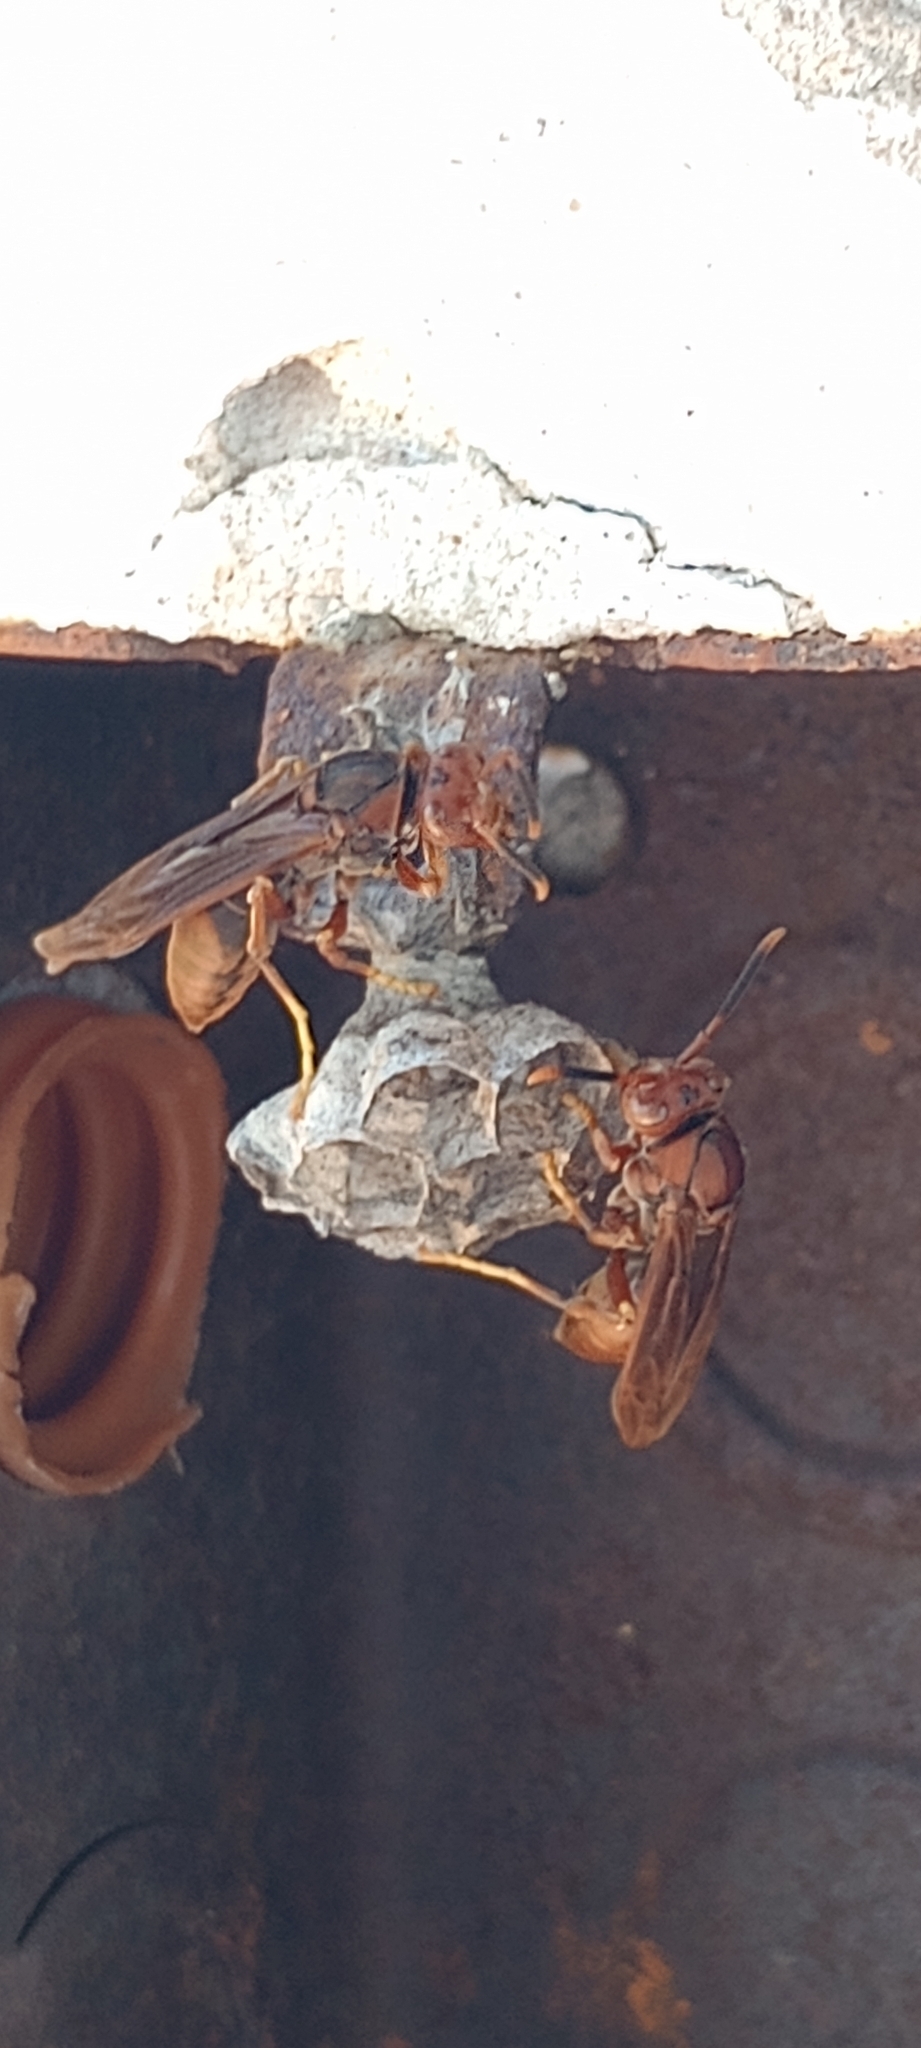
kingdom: Animalia
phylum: Arthropoda
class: Insecta
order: Hymenoptera
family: Pompilidae
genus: Aphanilopterus
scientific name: Aphanilopterus
